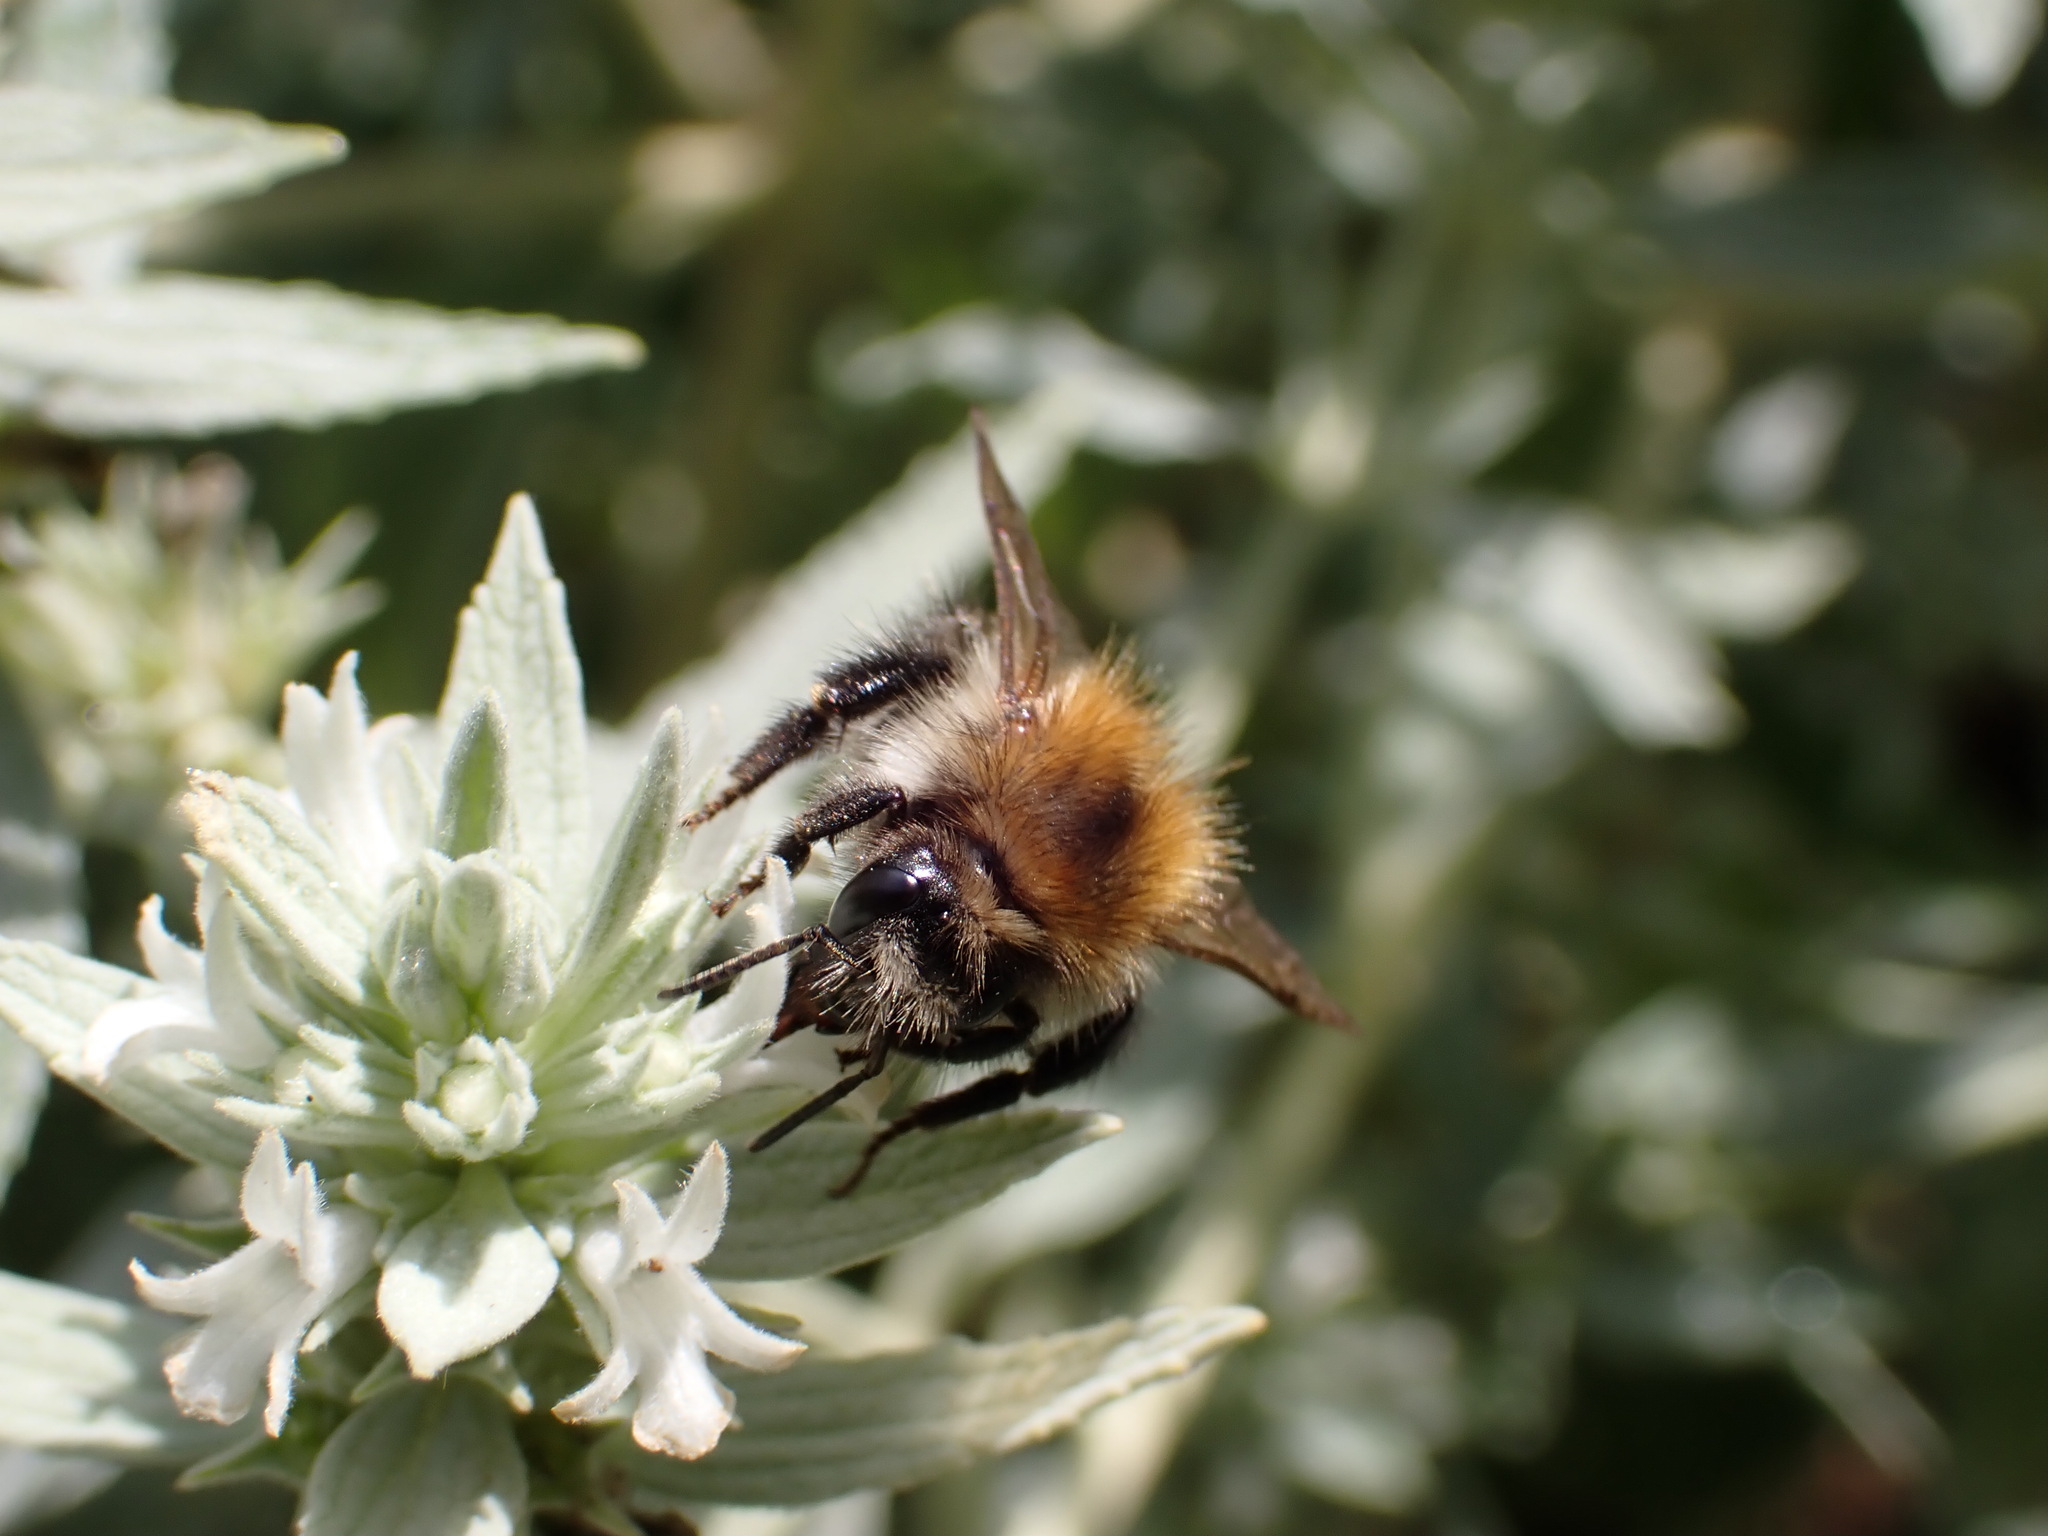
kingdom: Animalia
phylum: Arthropoda
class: Insecta
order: Hymenoptera
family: Apidae
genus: Bombus
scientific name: Bombus pascuorum
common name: Common carder bee
